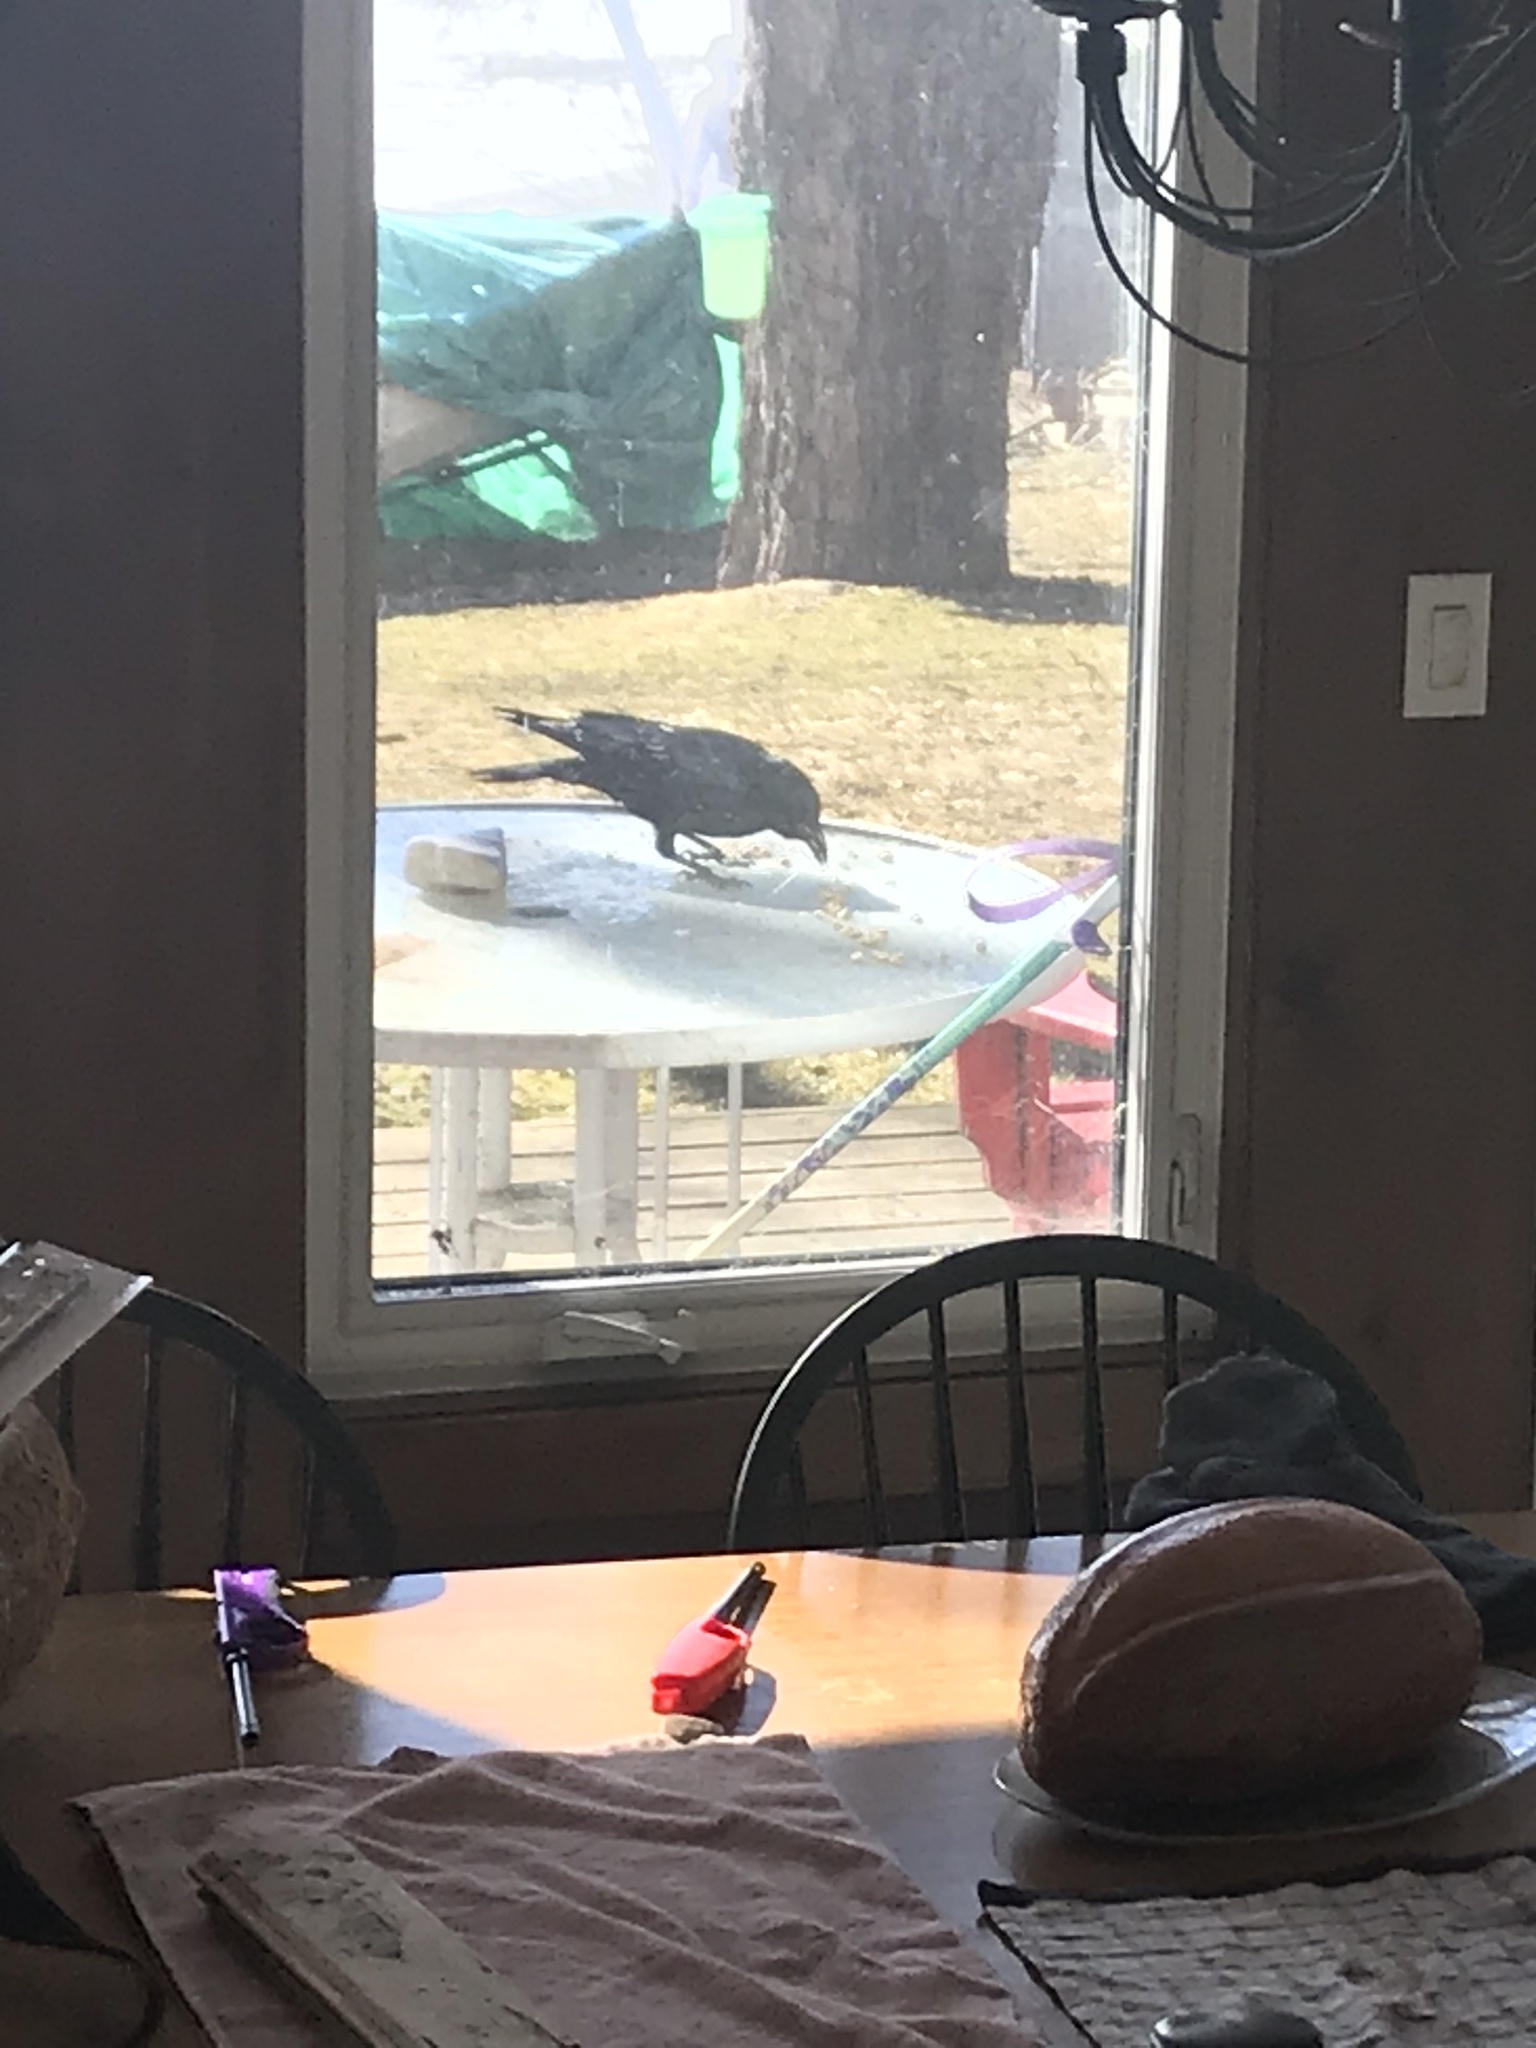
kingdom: Animalia
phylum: Chordata
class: Aves
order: Passeriformes
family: Corvidae
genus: Corvus
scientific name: Corvus brachyrhynchos
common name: American crow
